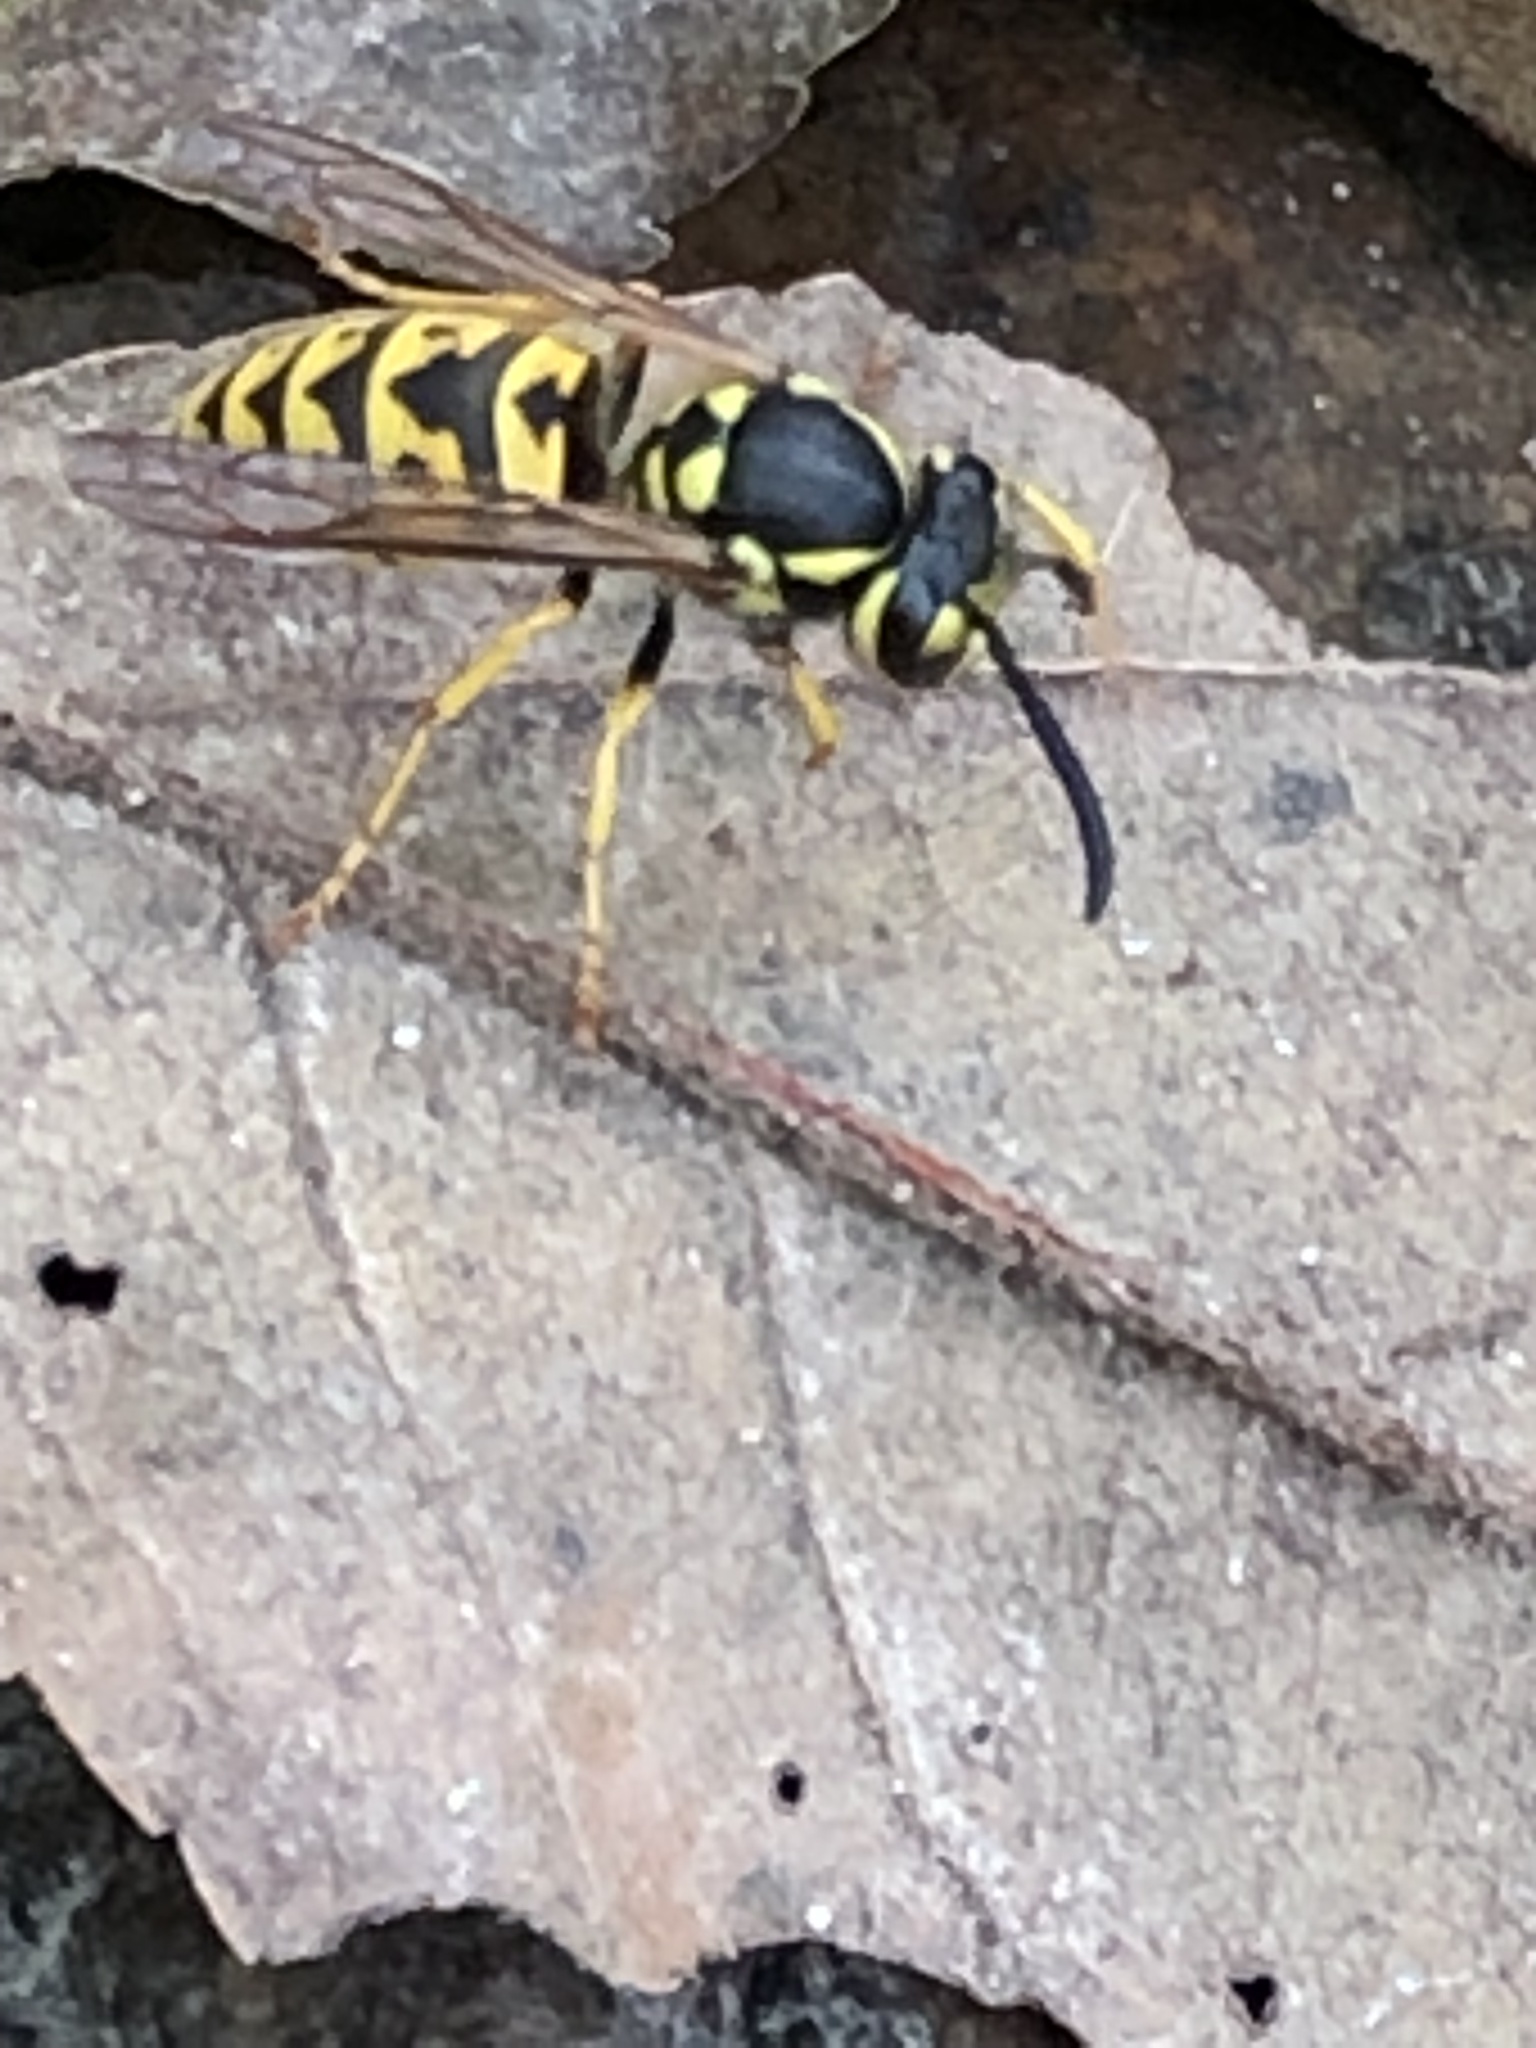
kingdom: Animalia
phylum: Arthropoda
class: Insecta
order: Hymenoptera
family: Vespidae
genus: Vespula
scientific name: Vespula germanica
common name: German wasp
